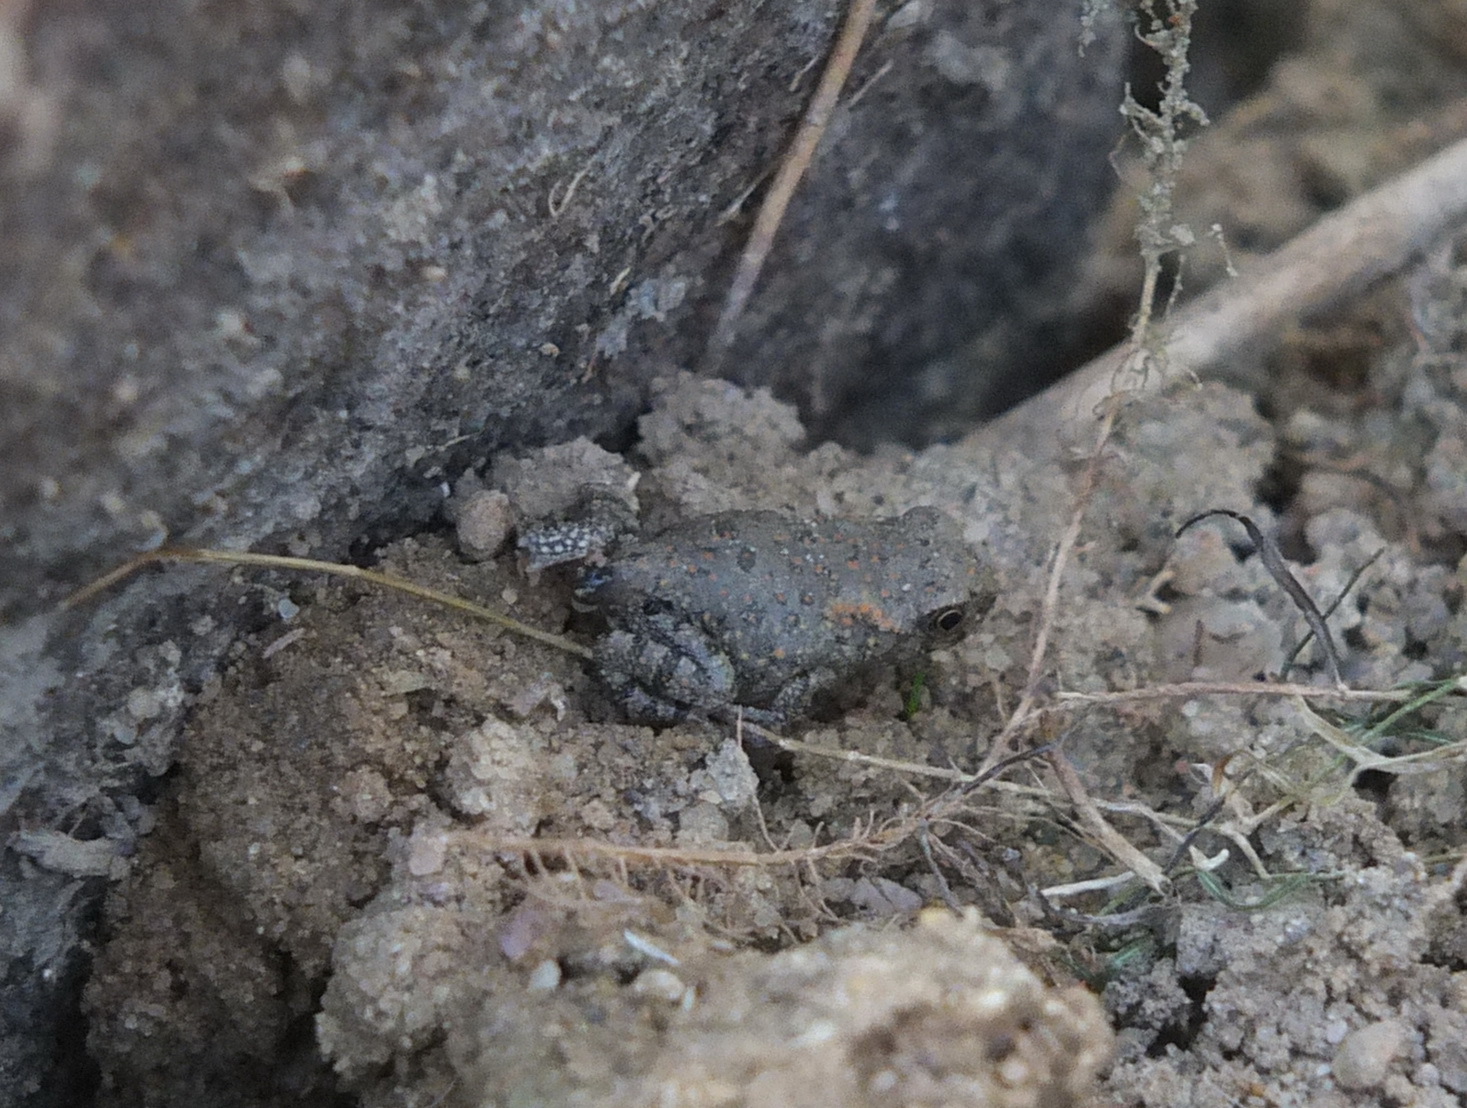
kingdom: Animalia
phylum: Chordata
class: Amphibia
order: Anura
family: Bufonidae
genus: Bufotes
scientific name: Bufotes boulengeri
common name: African green toad
